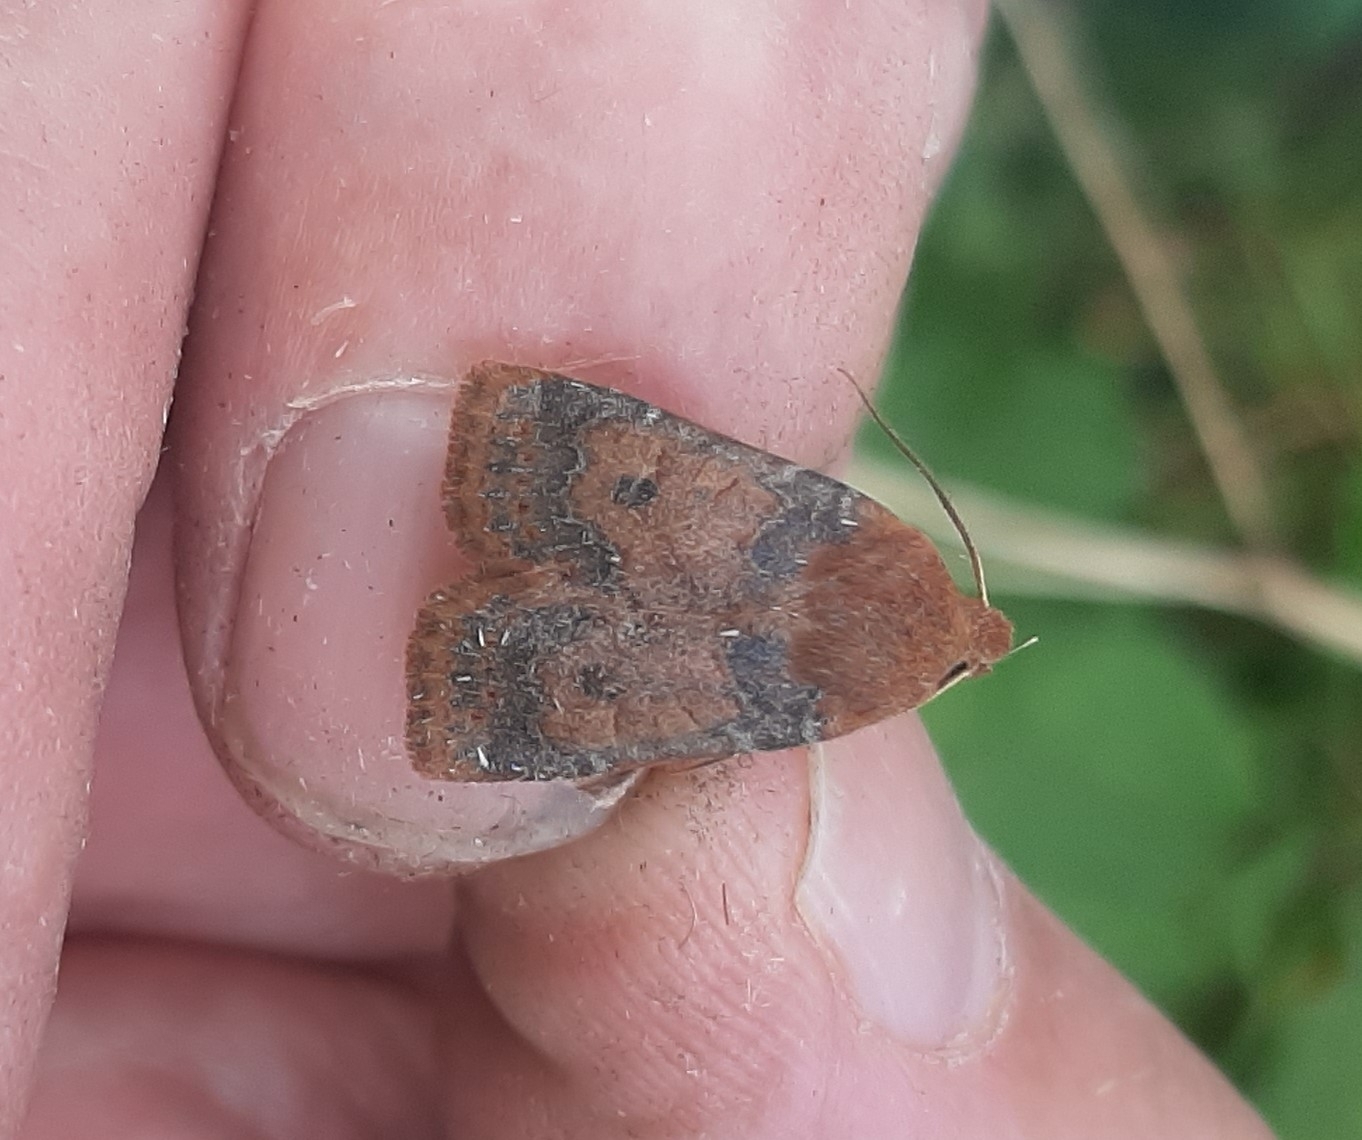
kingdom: Animalia
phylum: Arthropoda
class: Insecta
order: Lepidoptera
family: Noctuidae
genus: Conistra
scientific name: Conistra vaccinii
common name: Chestnut
